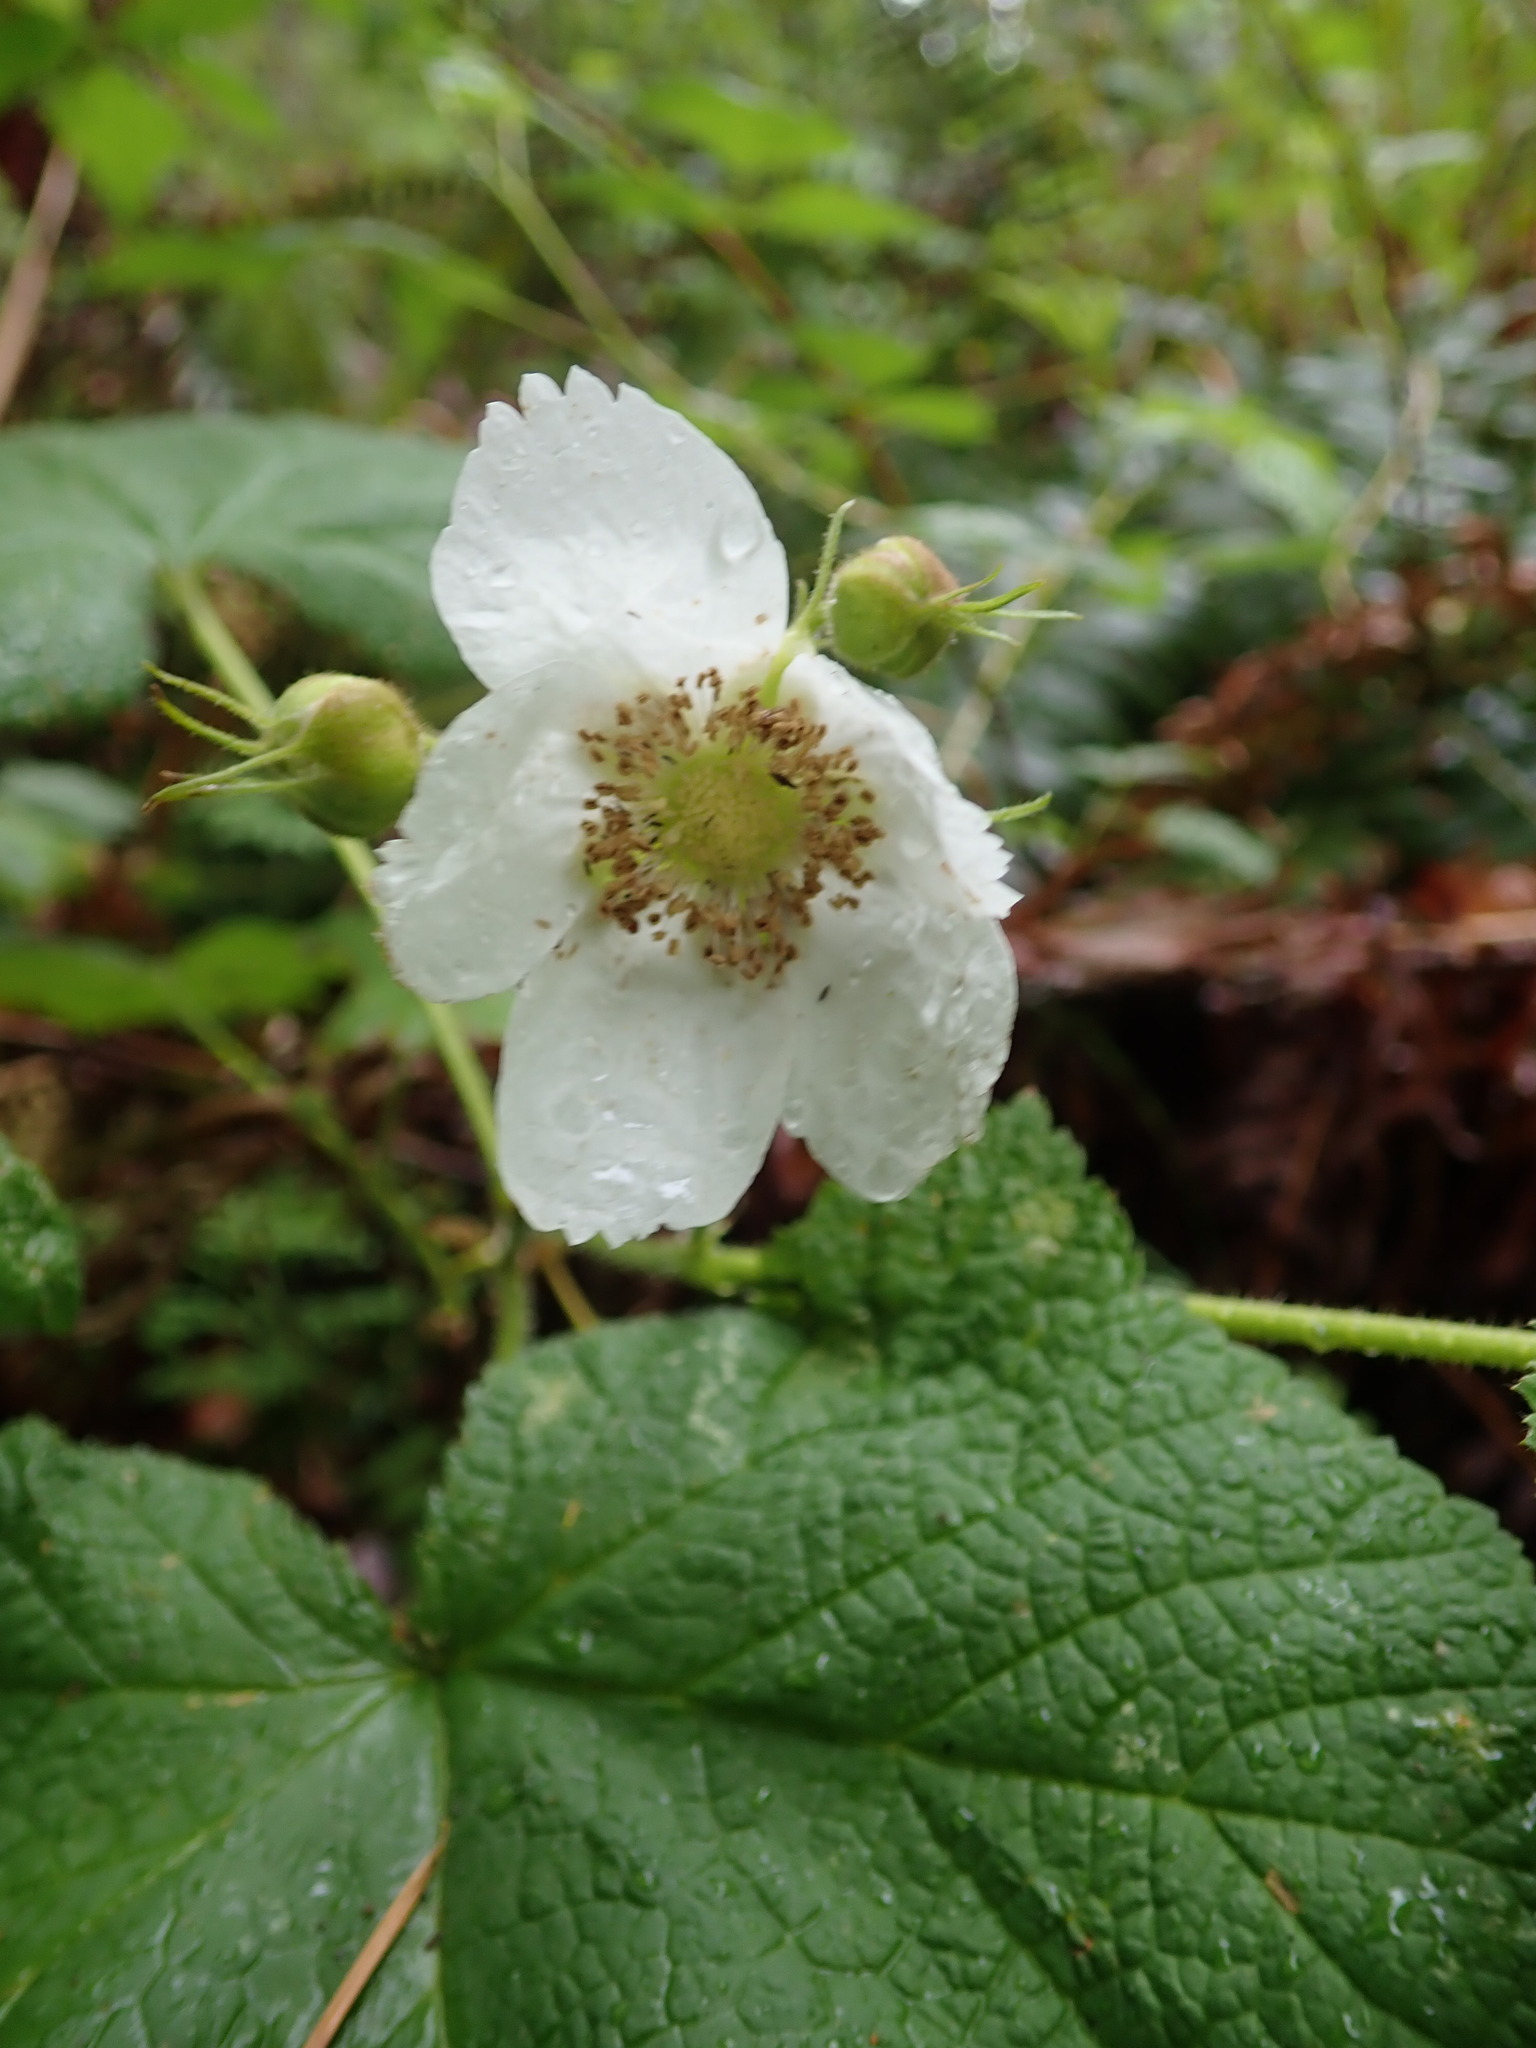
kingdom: Plantae
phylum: Tracheophyta
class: Magnoliopsida
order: Rosales
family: Rosaceae
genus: Rubus
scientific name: Rubus parviflorus
